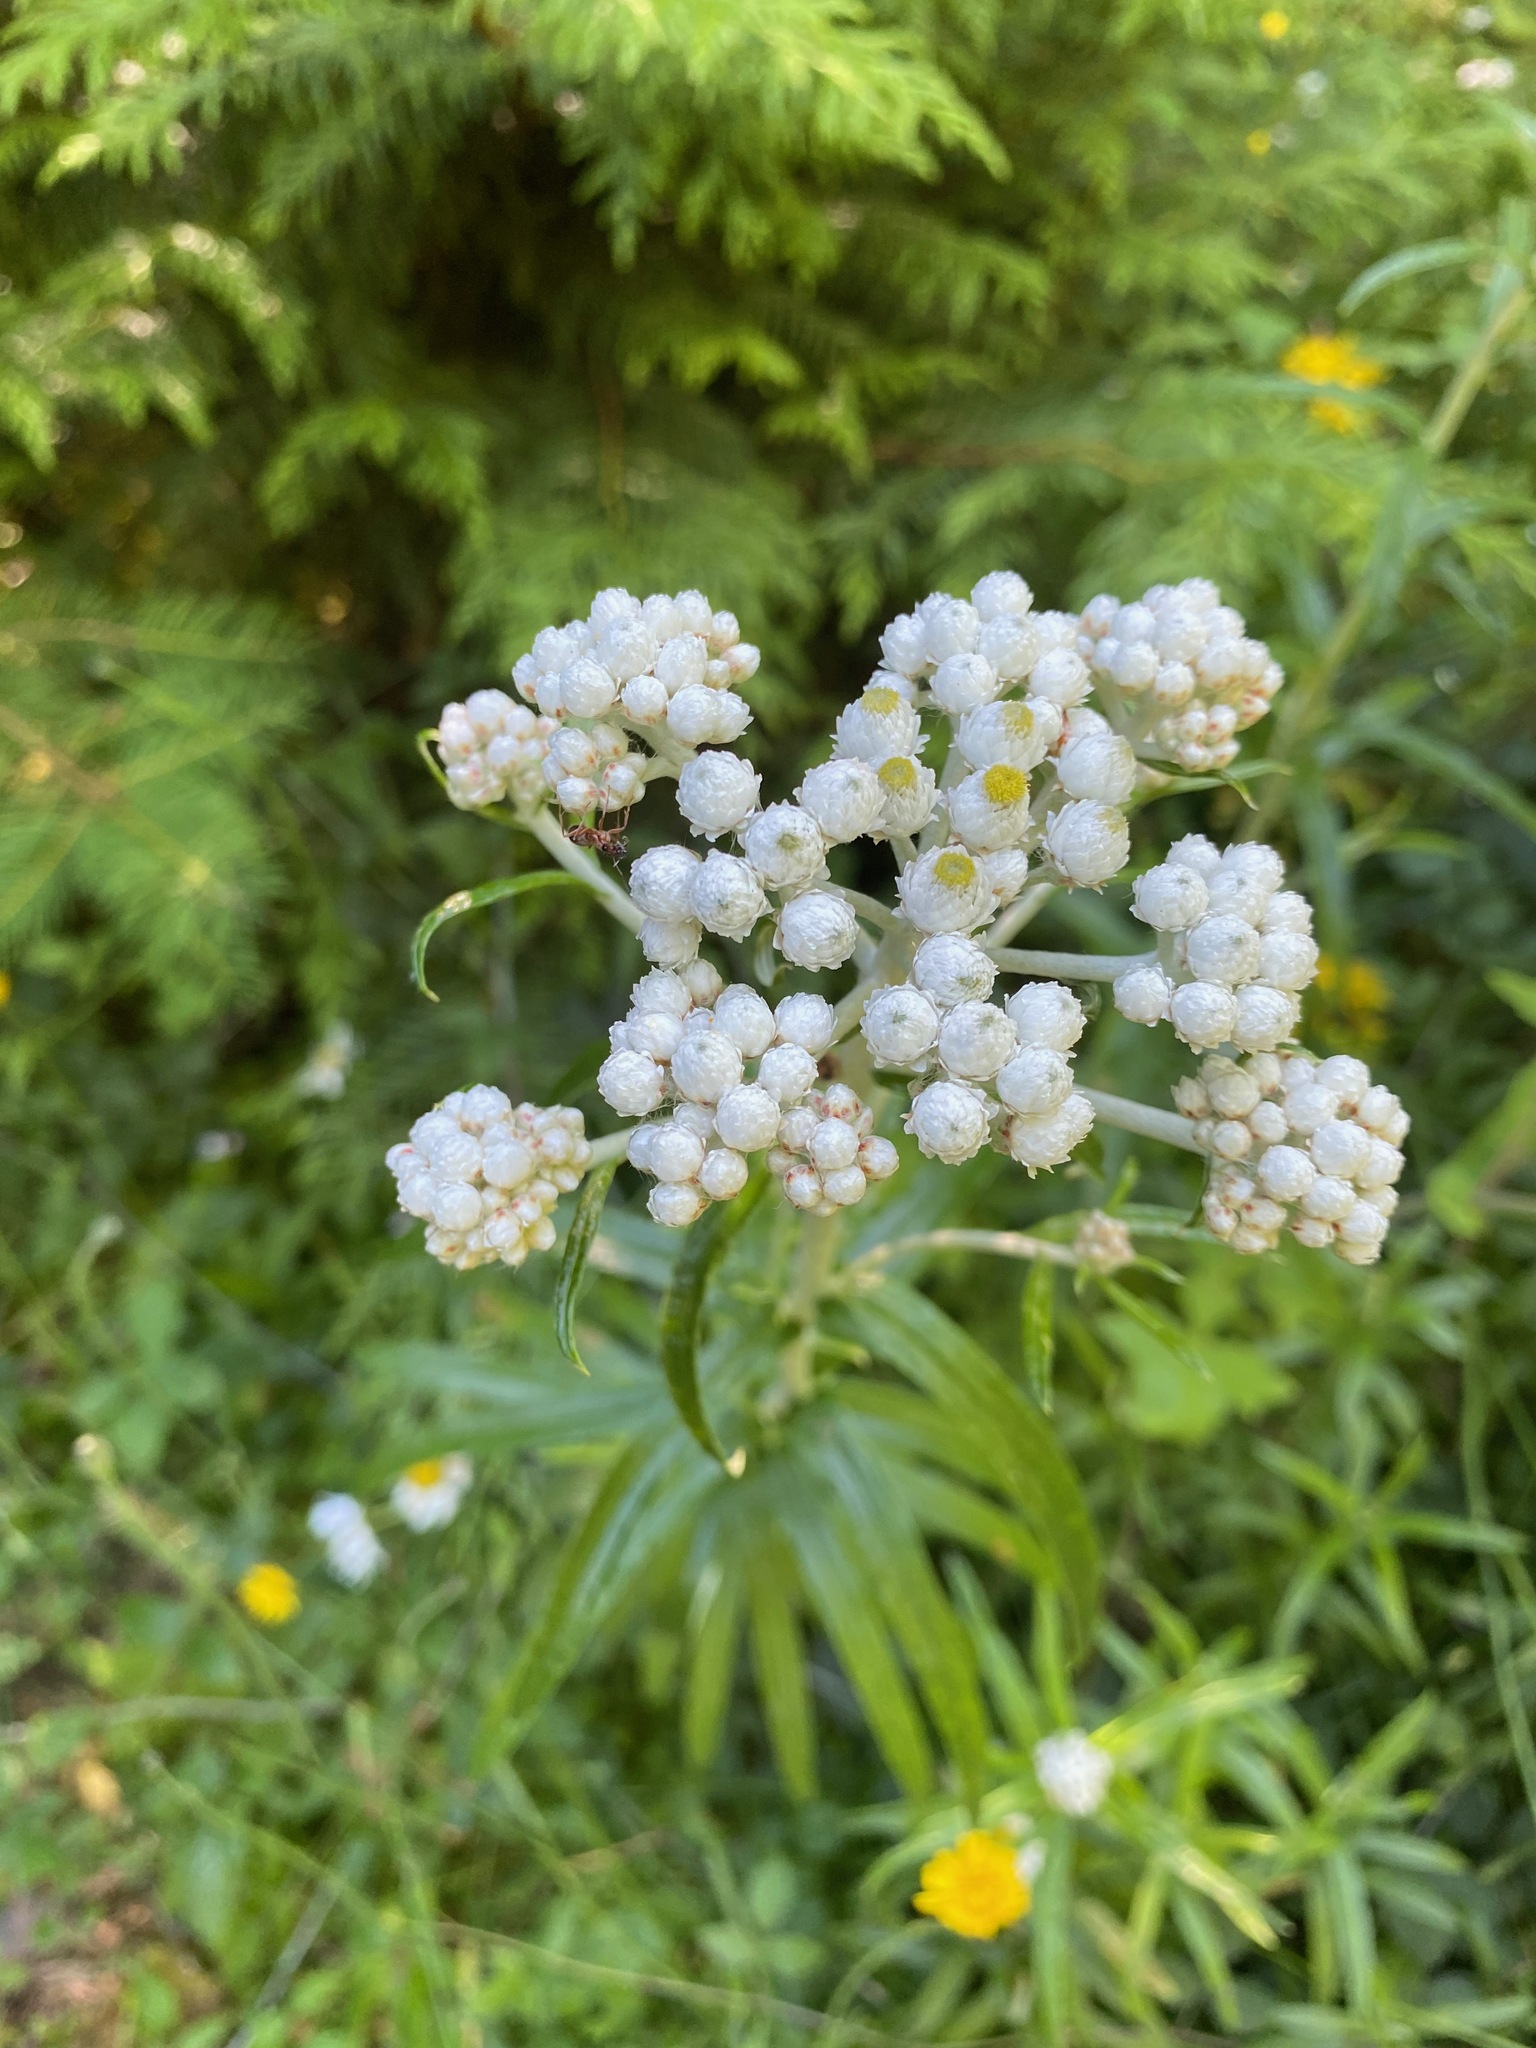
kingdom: Plantae
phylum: Tracheophyta
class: Magnoliopsida
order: Asterales
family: Asteraceae
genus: Anaphalis
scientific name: Anaphalis margaritacea
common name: Pearly everlasting
